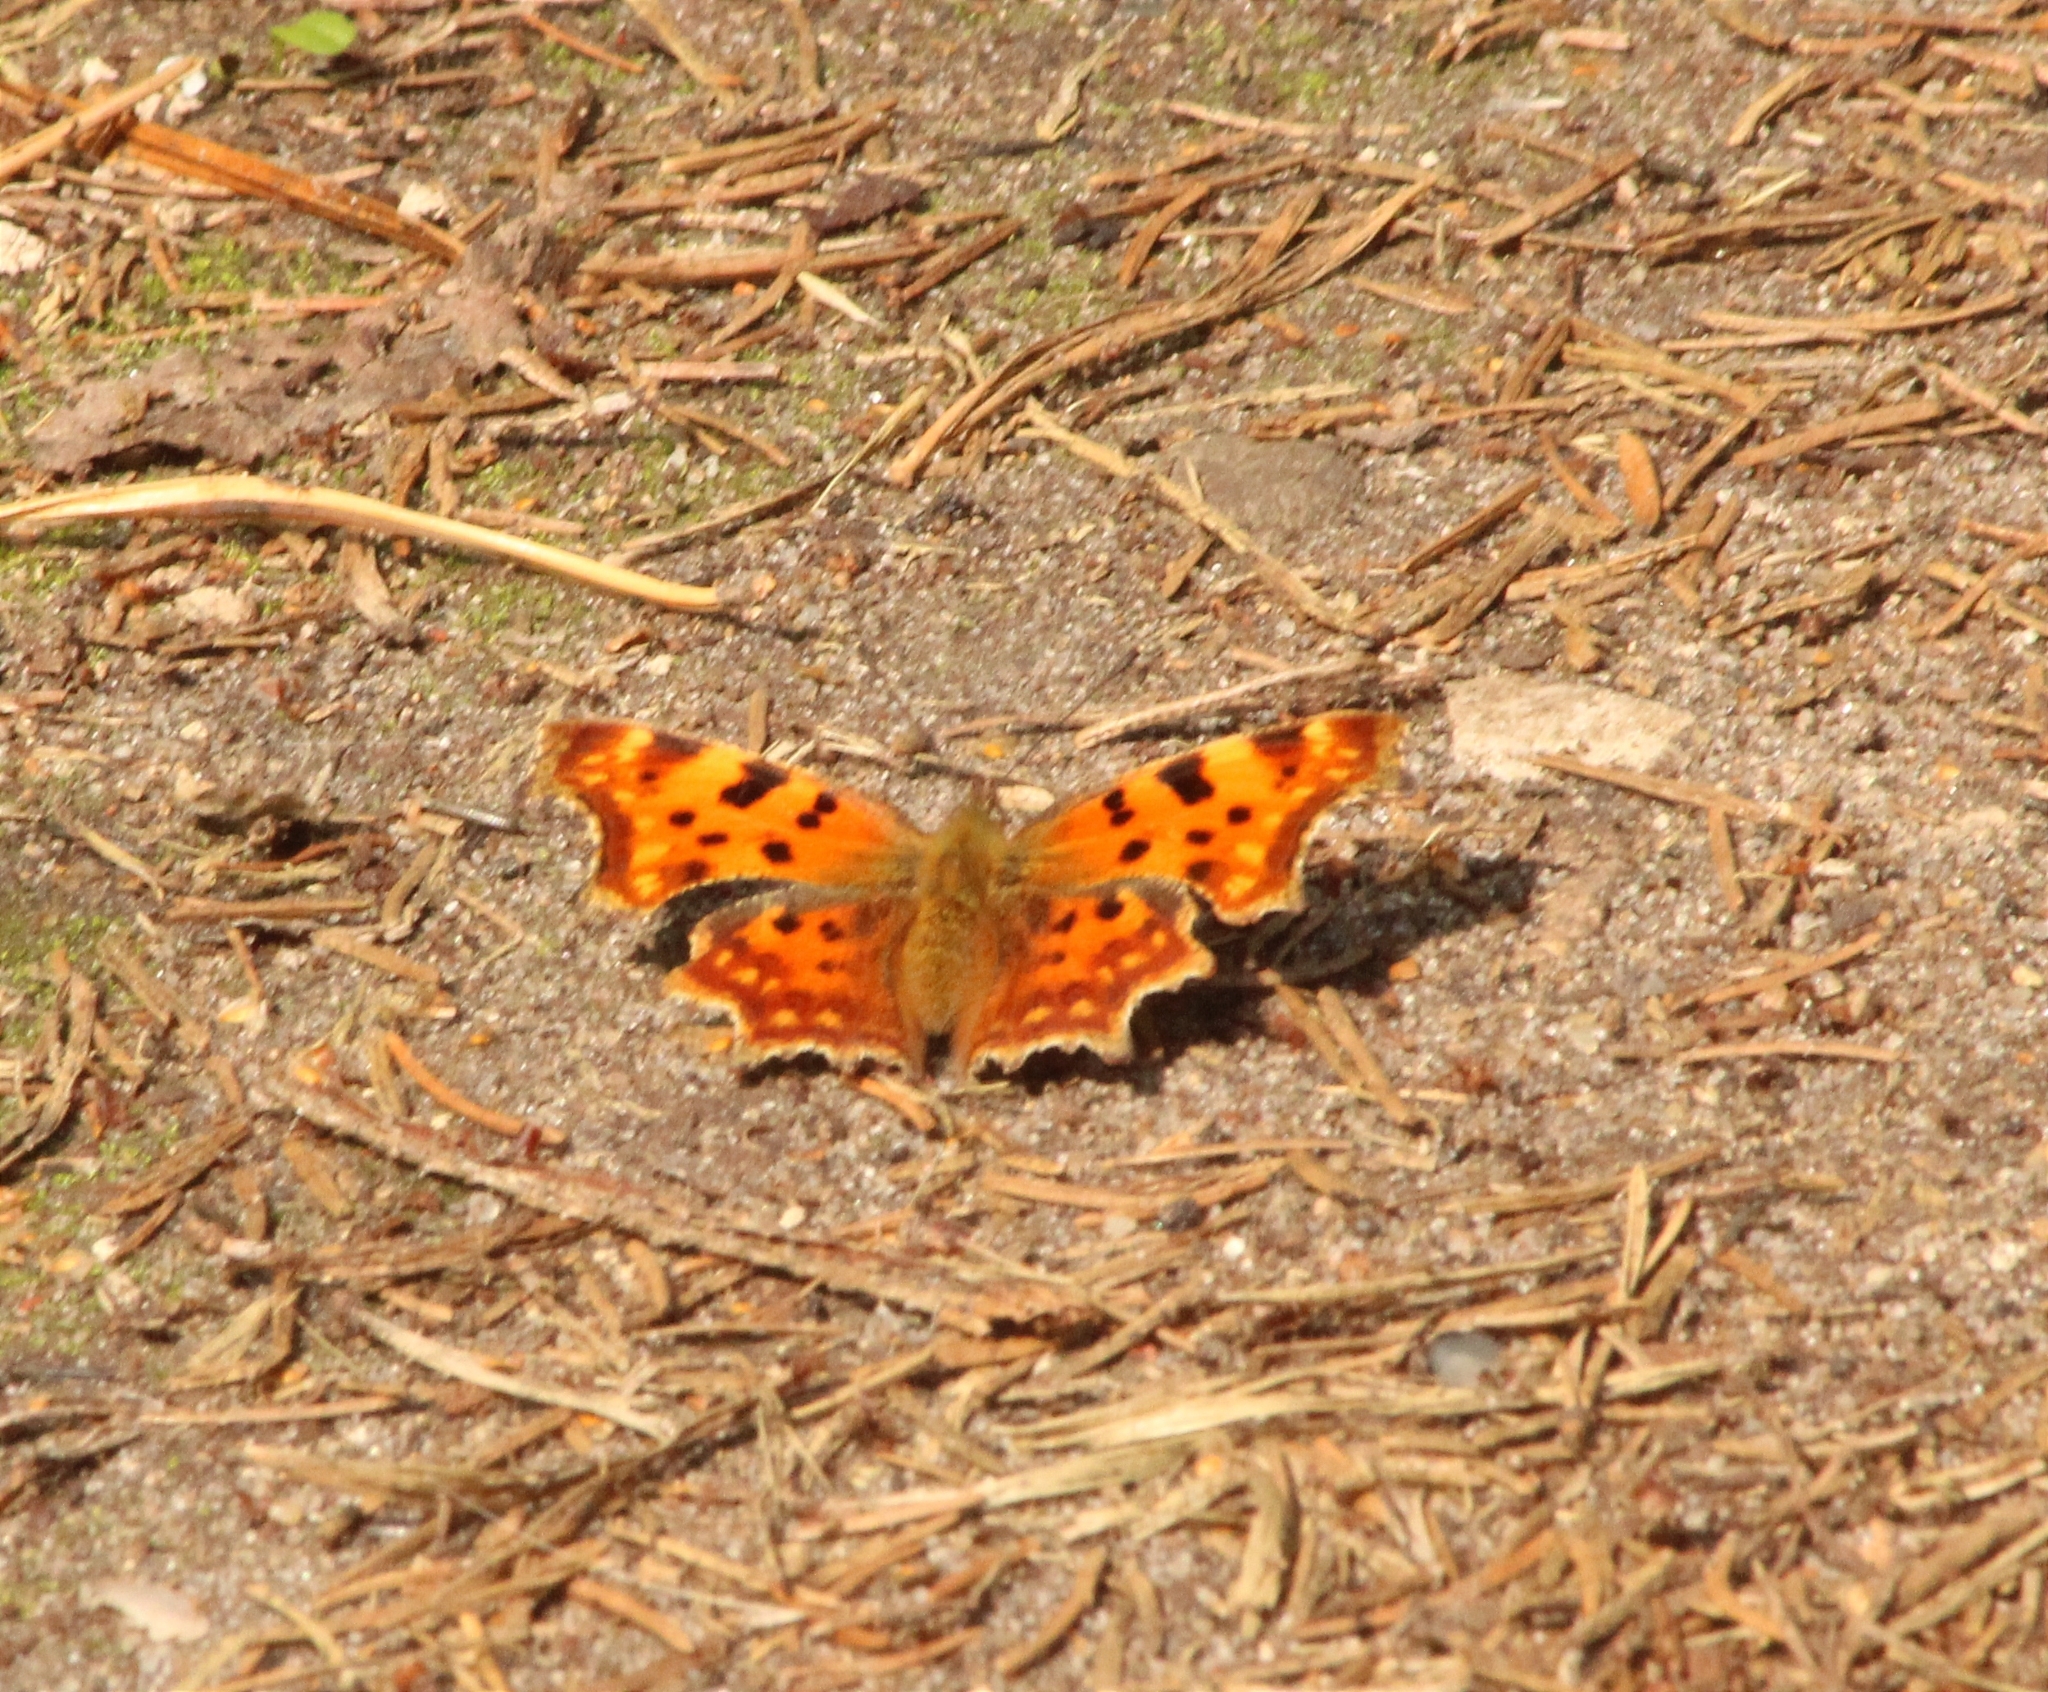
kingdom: Animalia
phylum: Arthropoda
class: Insecta
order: Lepidoptera
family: Nymphalidae
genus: Polygonia
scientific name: Polygonia c-album
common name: Comma
